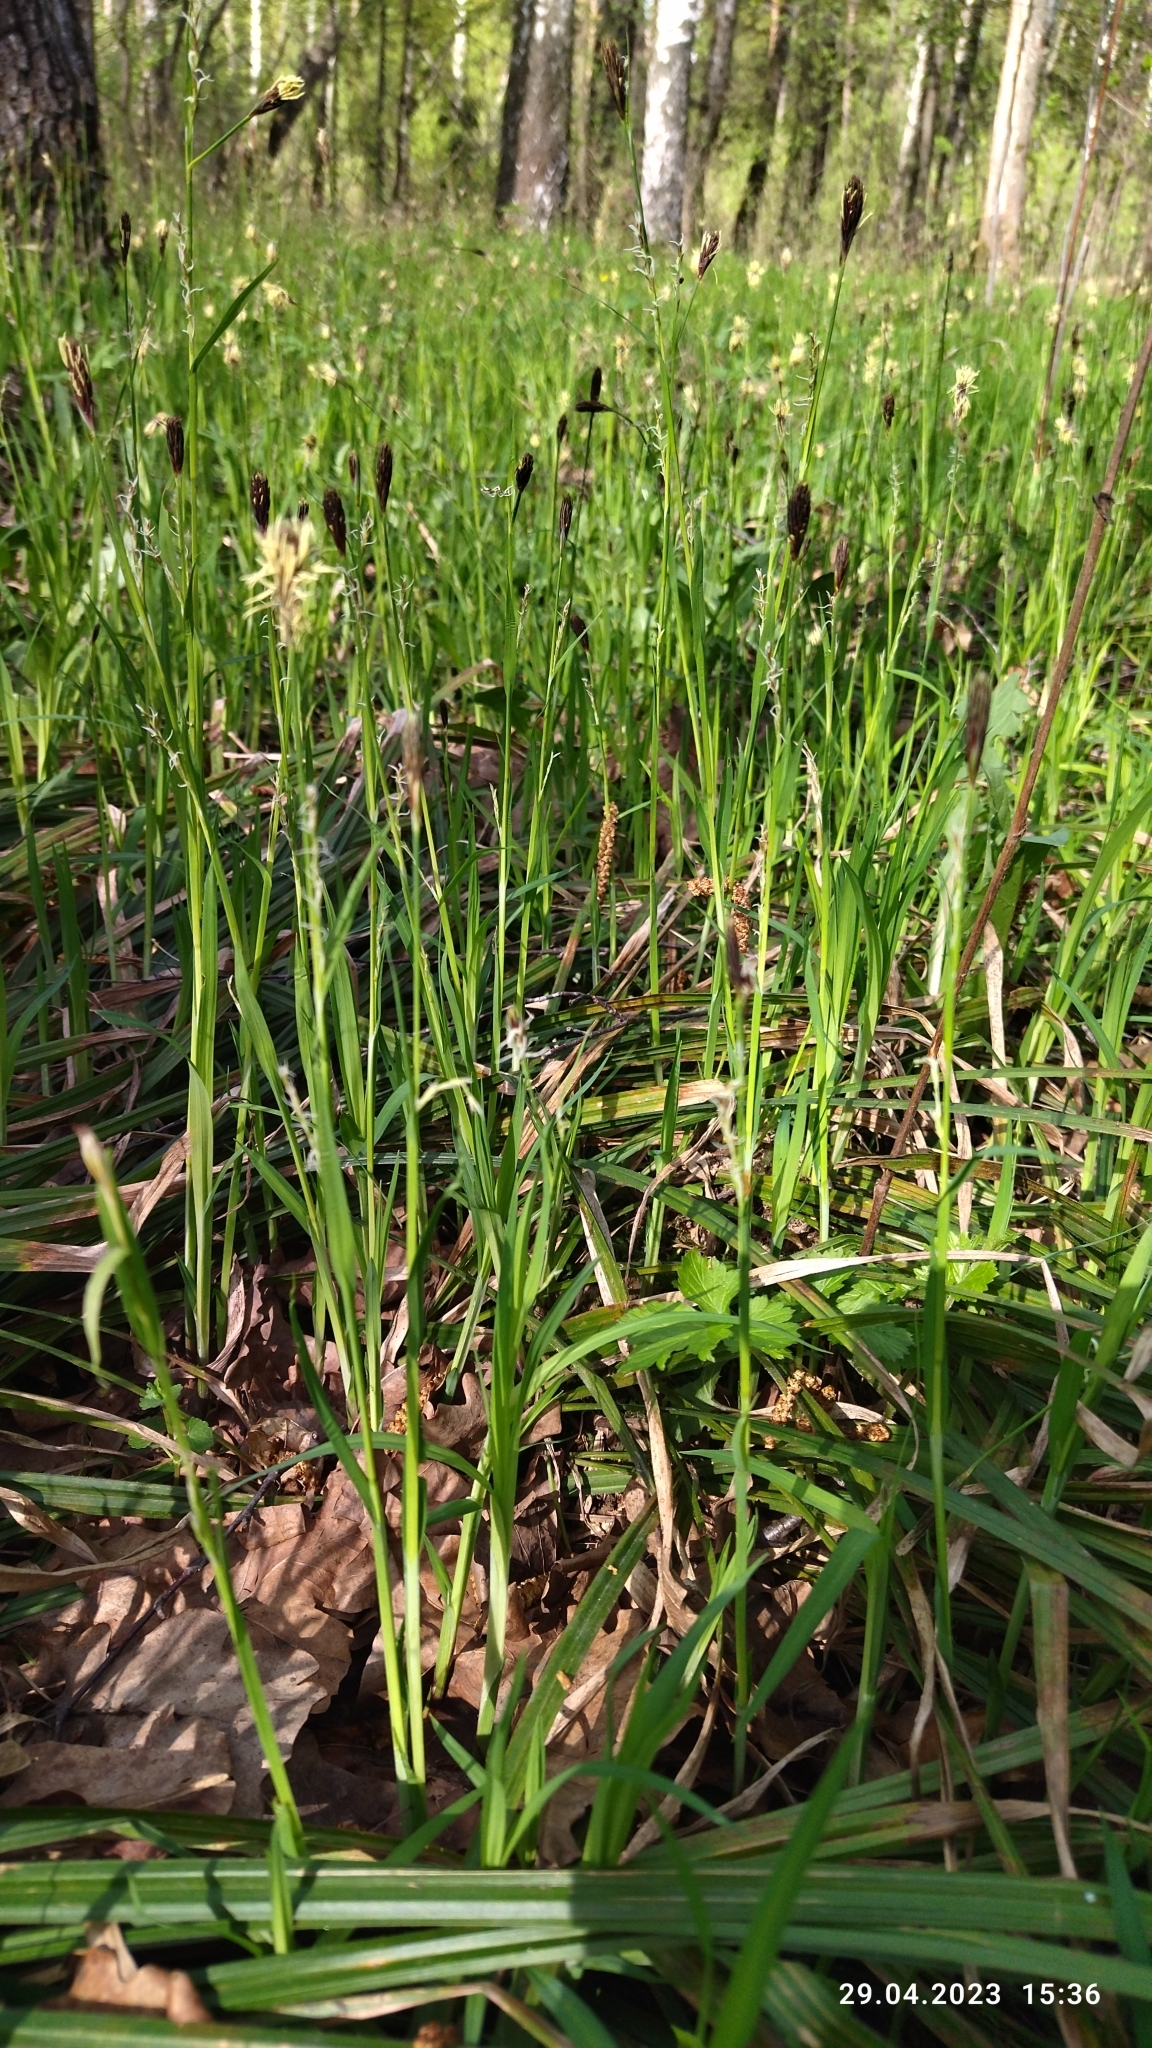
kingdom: Plantae
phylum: Tracheophyta
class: Liliopsida
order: Poales
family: Cyperaceae
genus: Carex
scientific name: Carex pilosa
